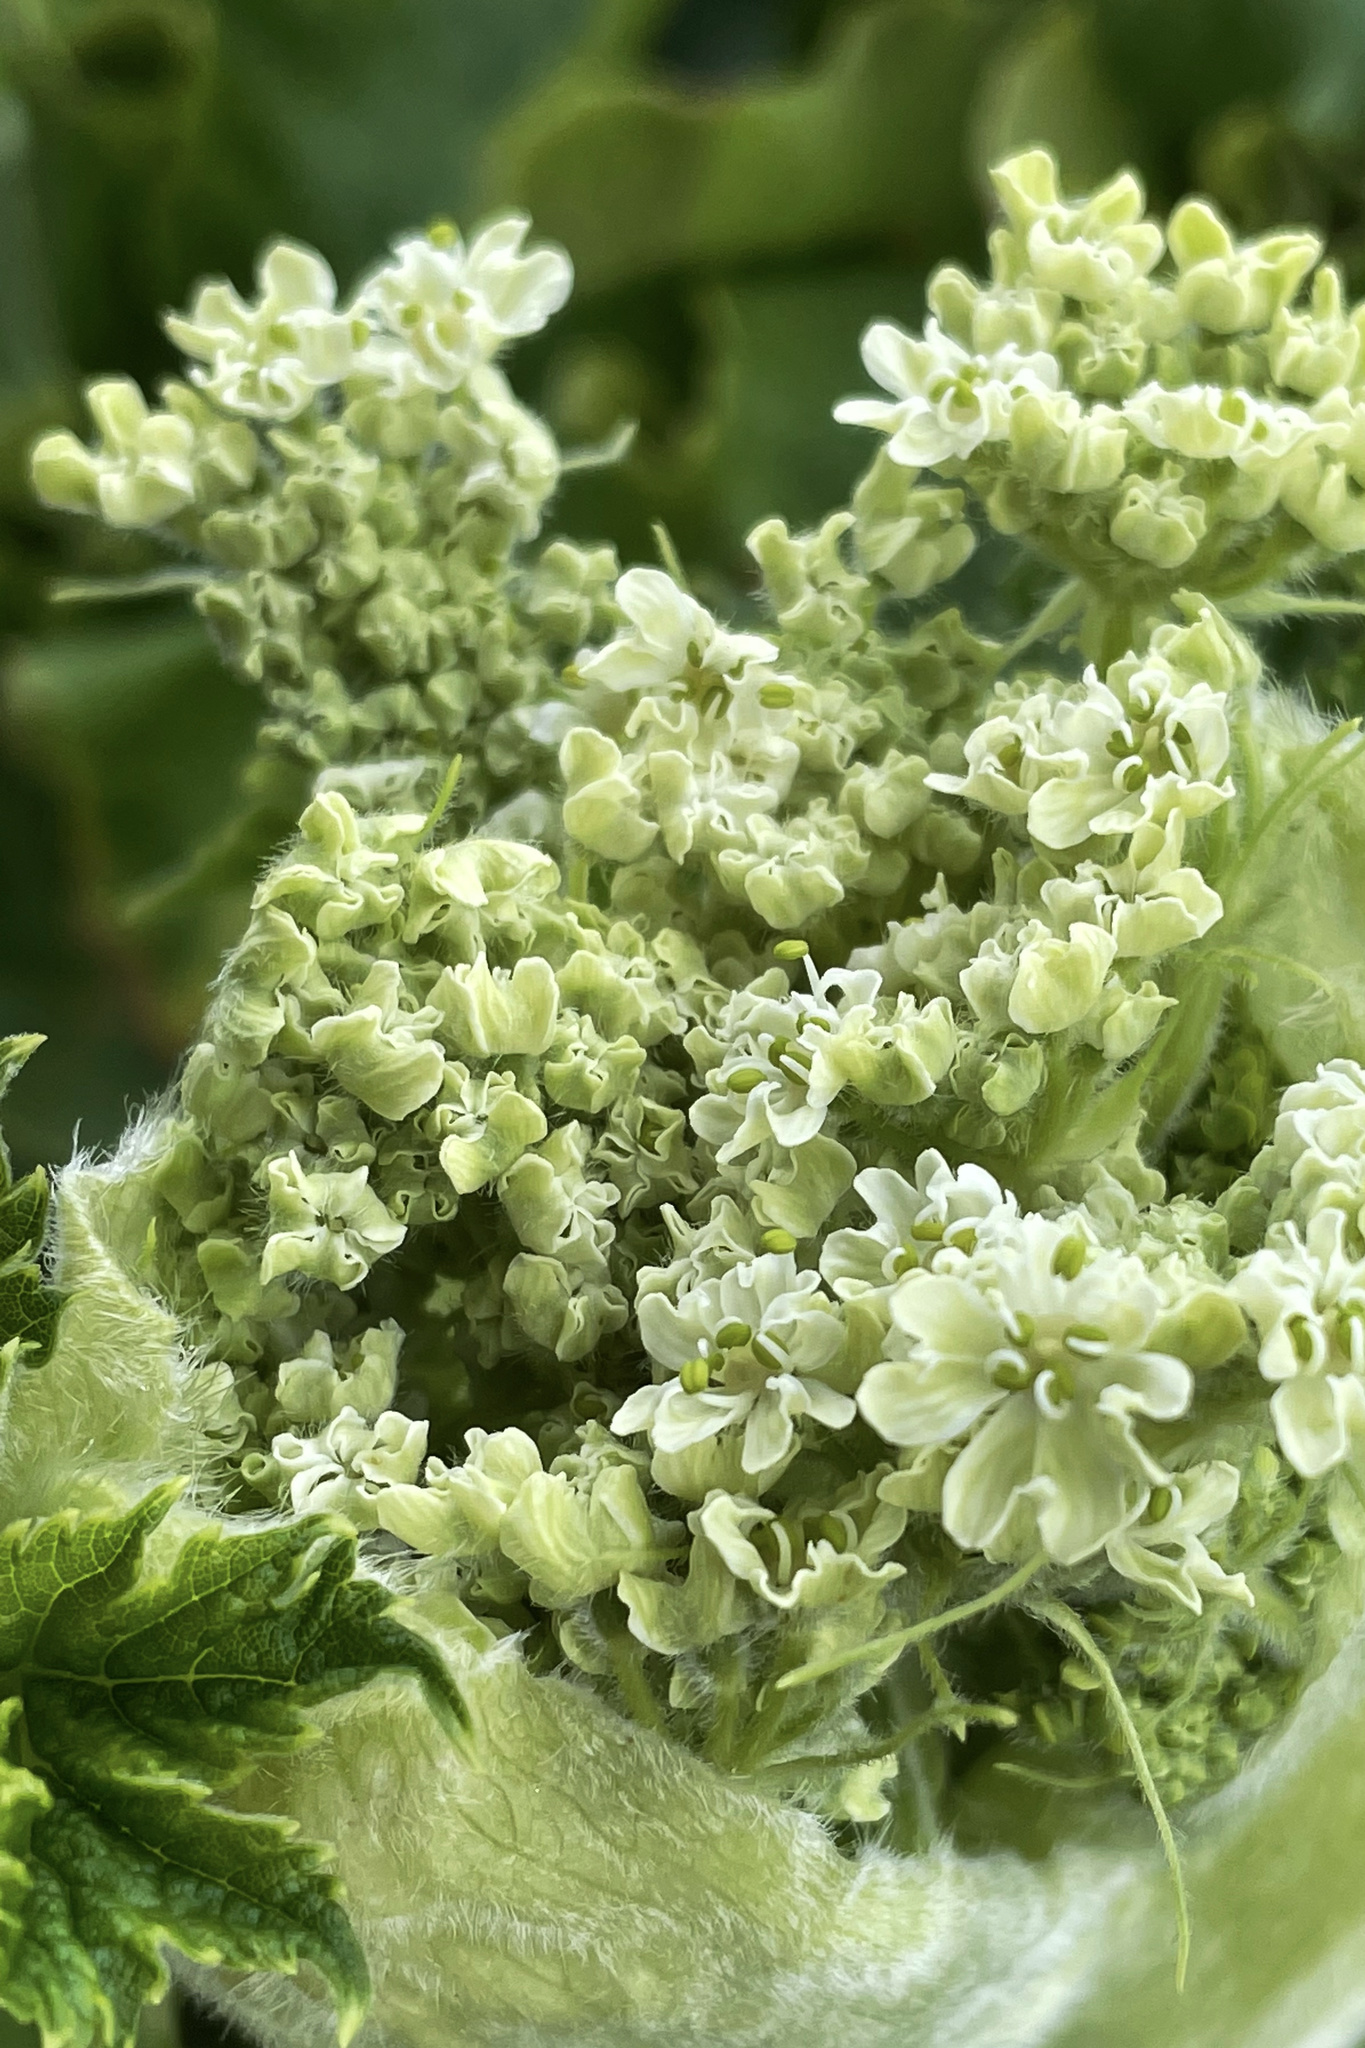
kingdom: Plantae
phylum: Tracheophyta
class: Magnoliopsida
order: Apiales
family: Apiaceae
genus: Heracleum
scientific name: Heracleum maximum
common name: American cow parsnip
